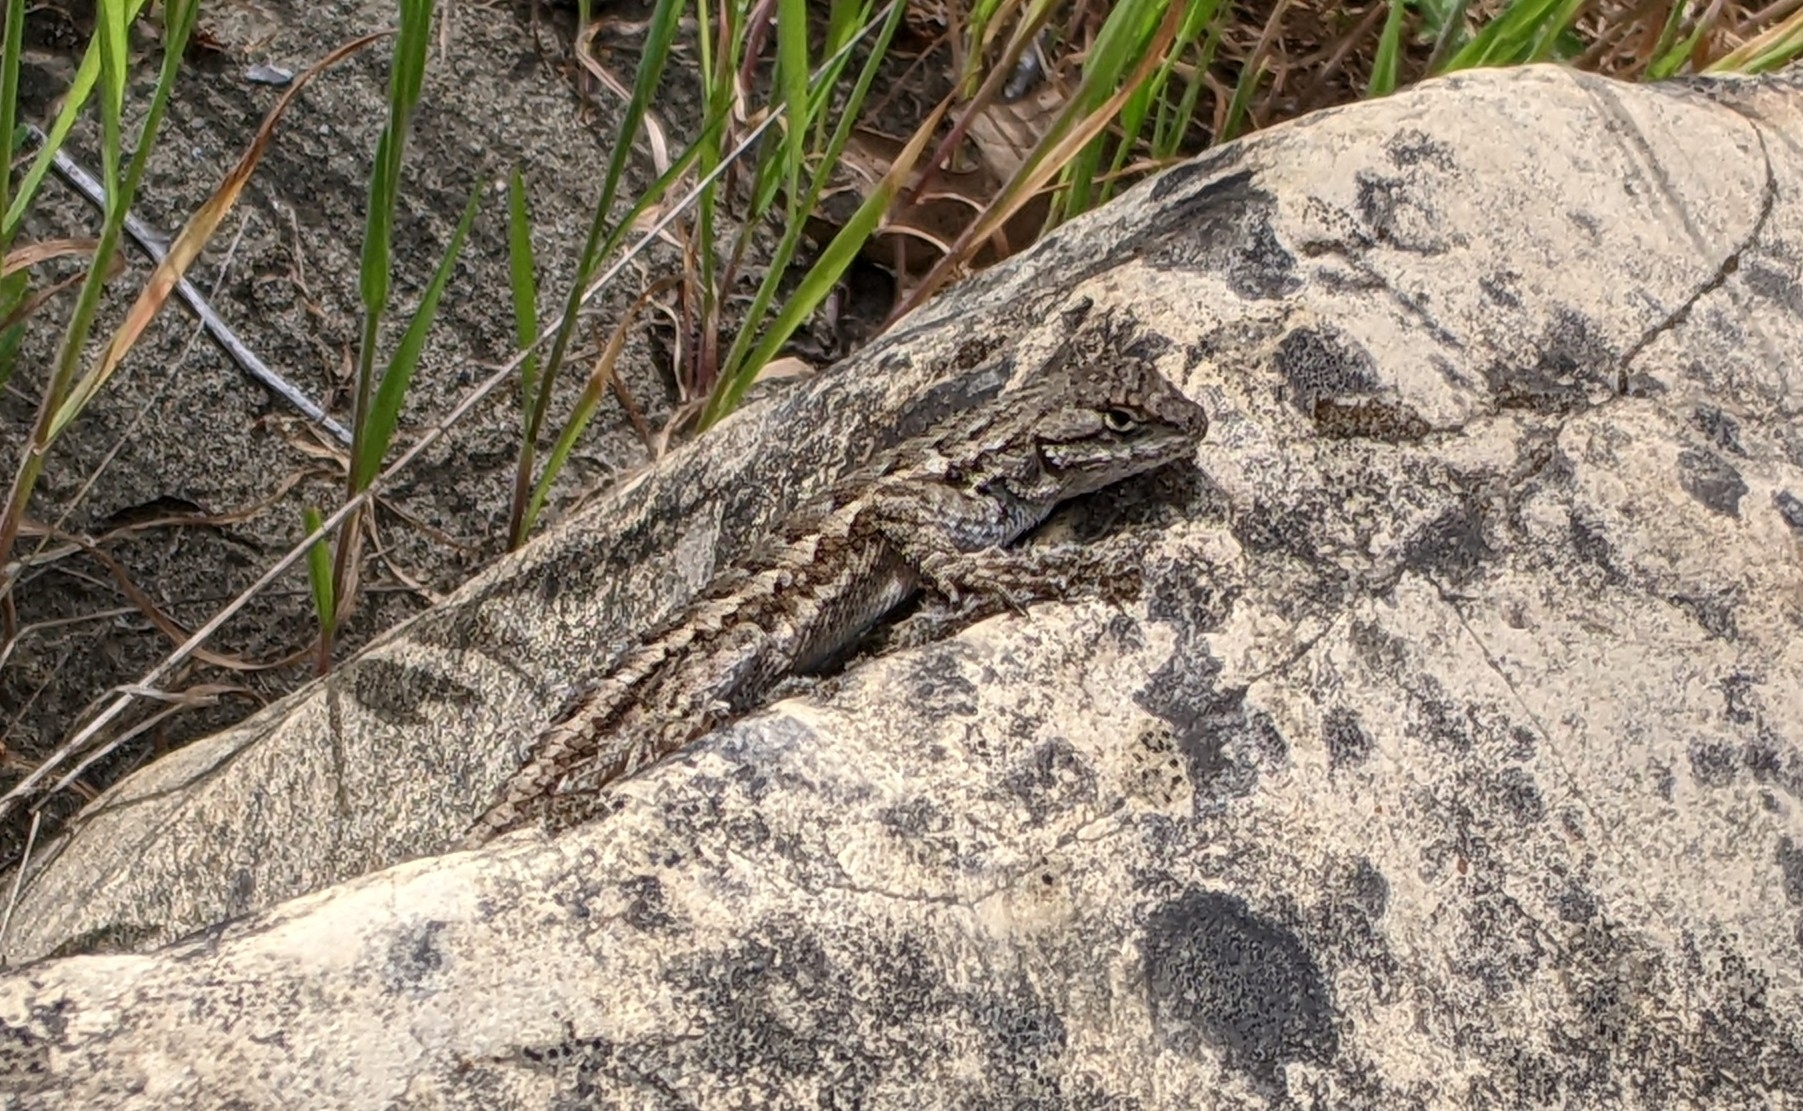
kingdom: Animalia
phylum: Chordata
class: Squamata
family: Phrynosomatidae
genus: Sceloporus
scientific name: Sceloporus occidentalis
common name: Western fence lizard
